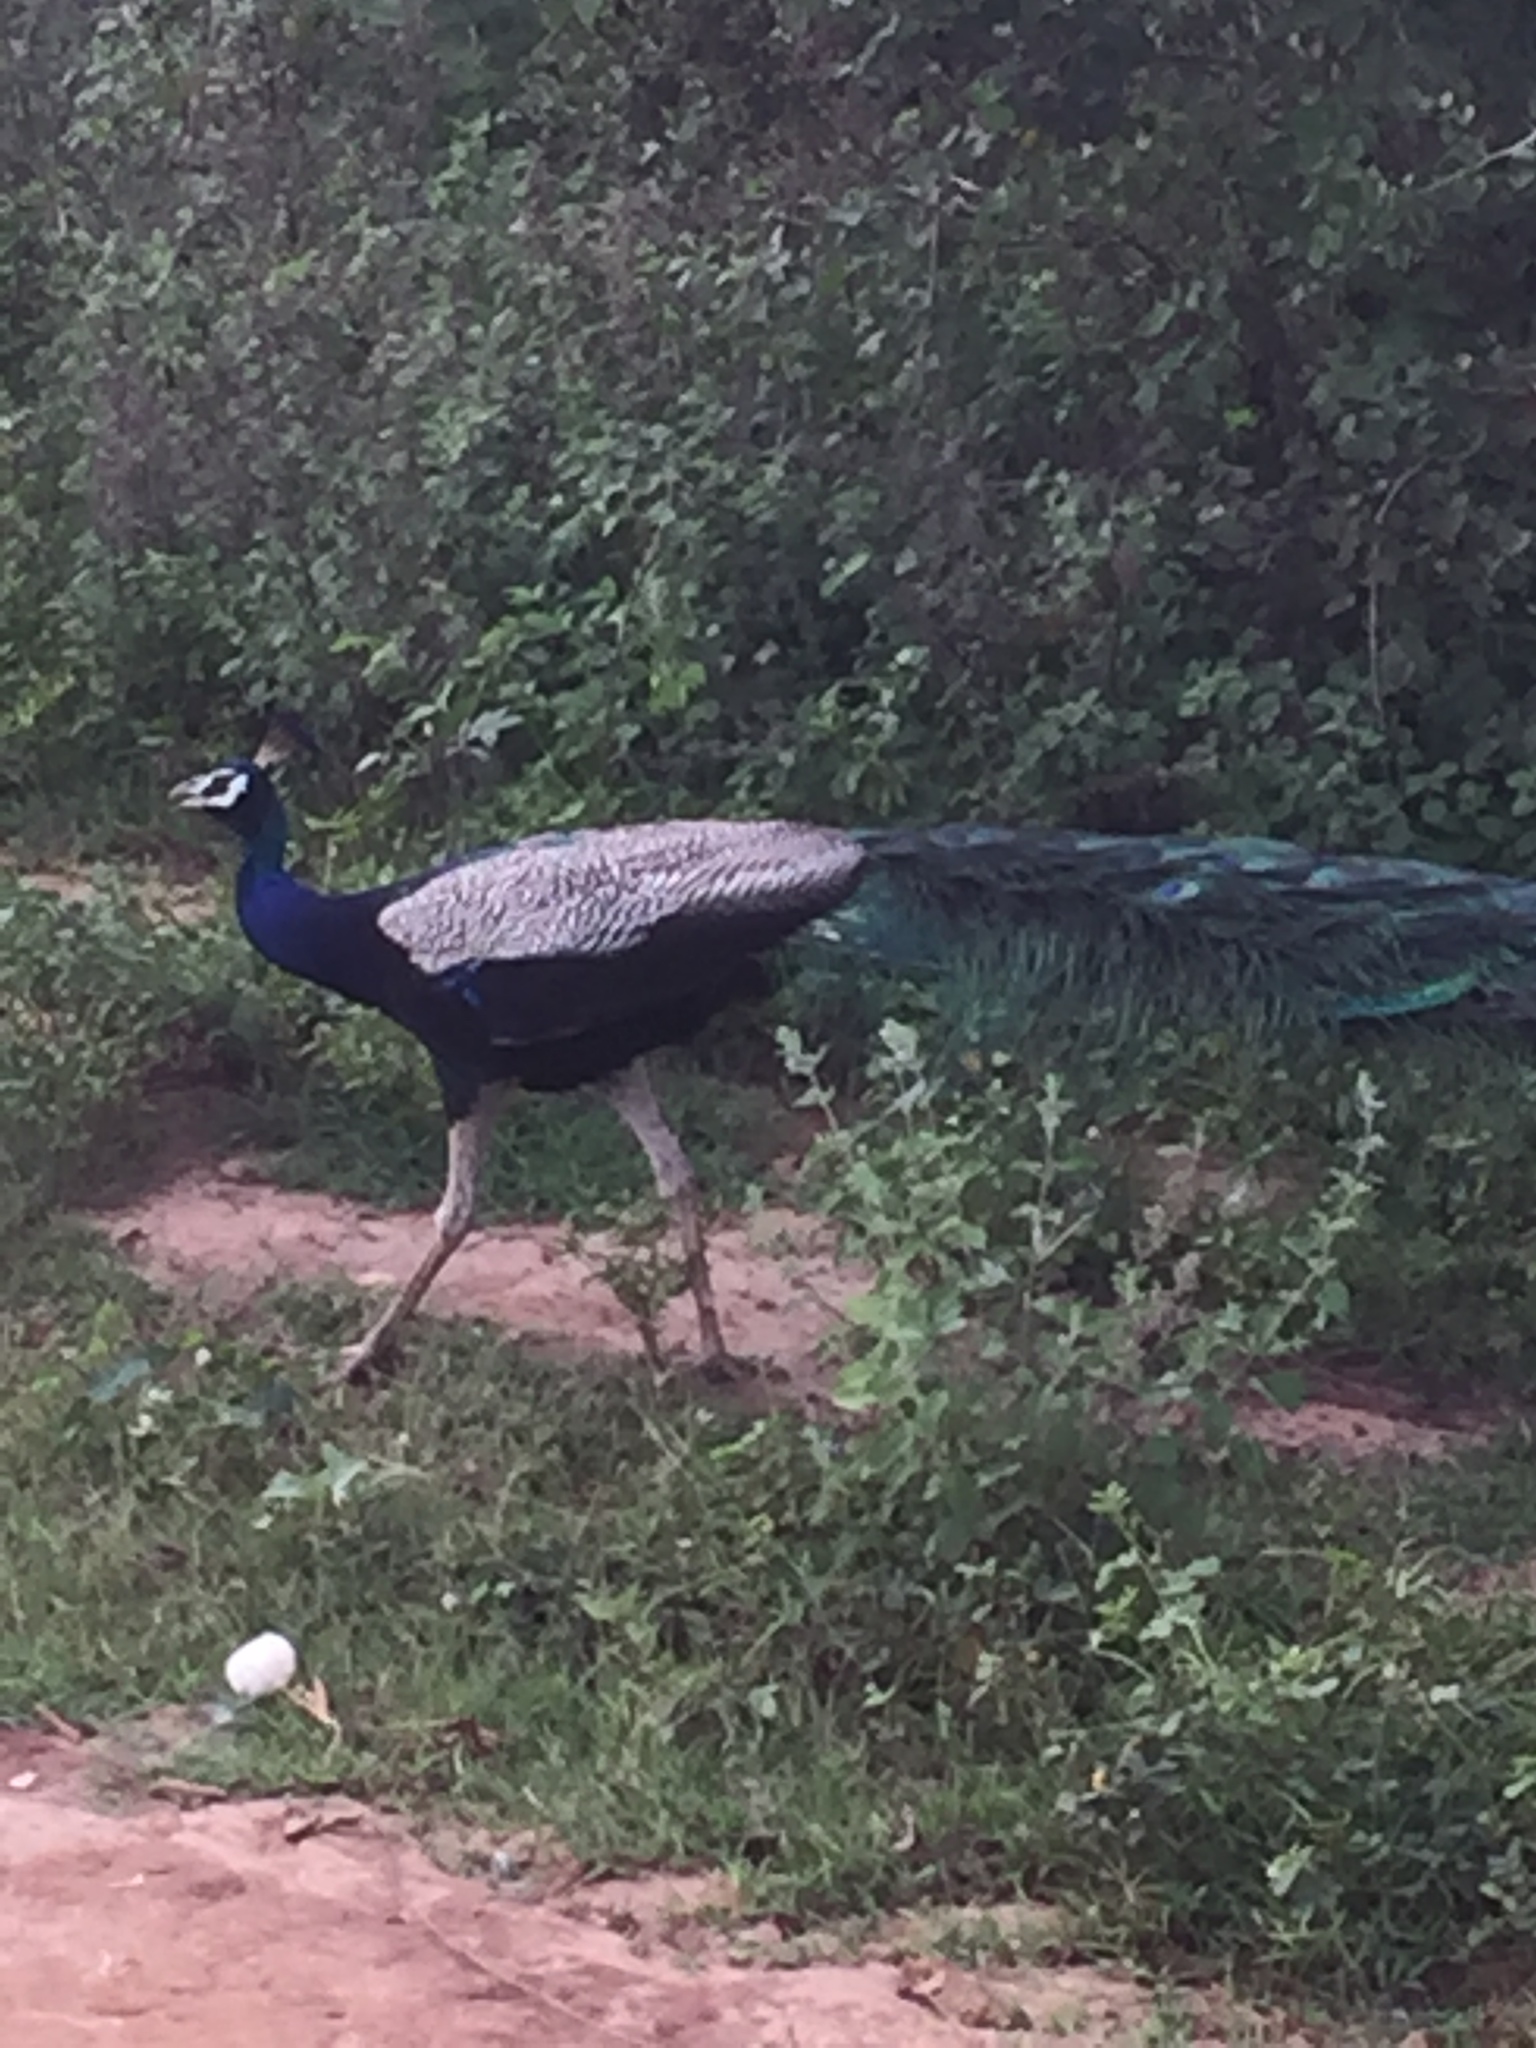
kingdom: Animalia
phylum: Chordata
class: Aves
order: Galliformes
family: Phasianidae
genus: Pavo
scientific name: Pavo cristatus
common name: Indian peafowl
